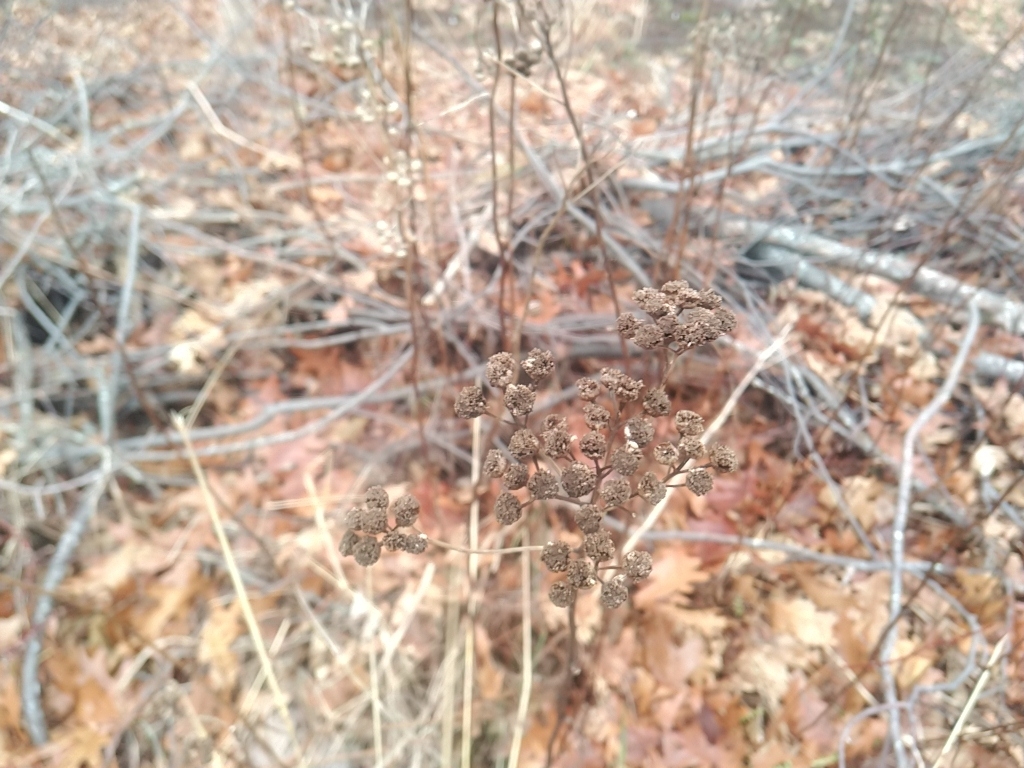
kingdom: Plantae
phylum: Tracheophyta
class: Magnoliopsida
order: Asterales
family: Asteraceae
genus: Tanacetum
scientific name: Tanacetum vulgare
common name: Common tansy
